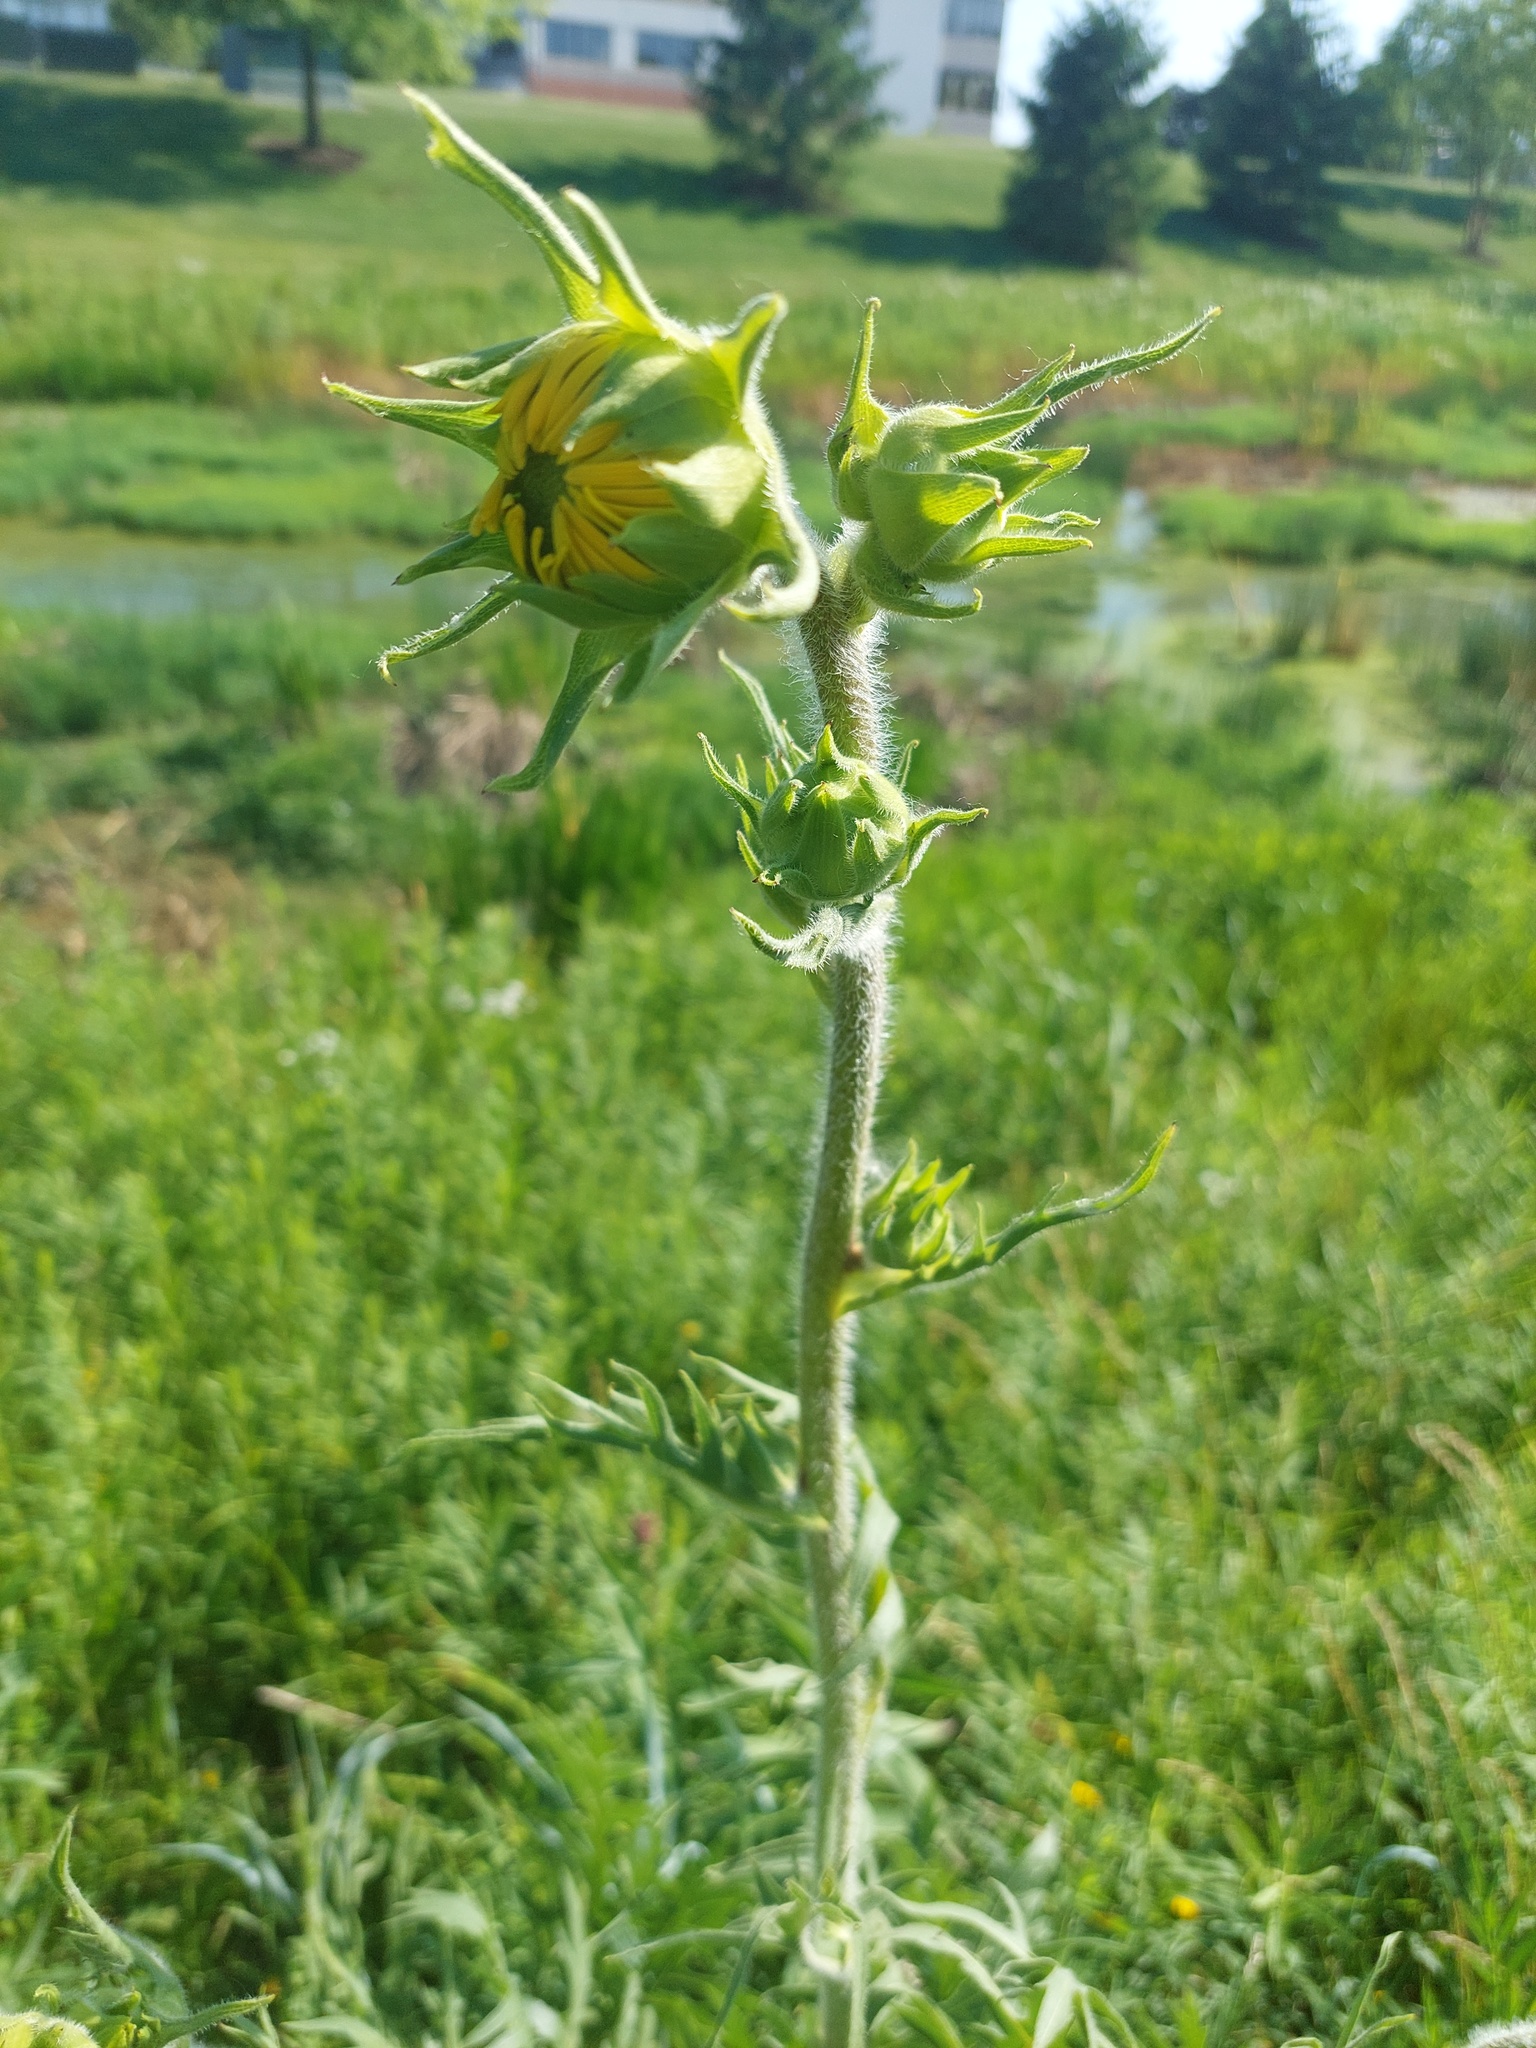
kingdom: Plantae
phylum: Tracheophyta
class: Magnoliopsida
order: Asterales
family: Asteraceae
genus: Silphium
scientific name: Silphium laciniatum
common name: Polarplant
